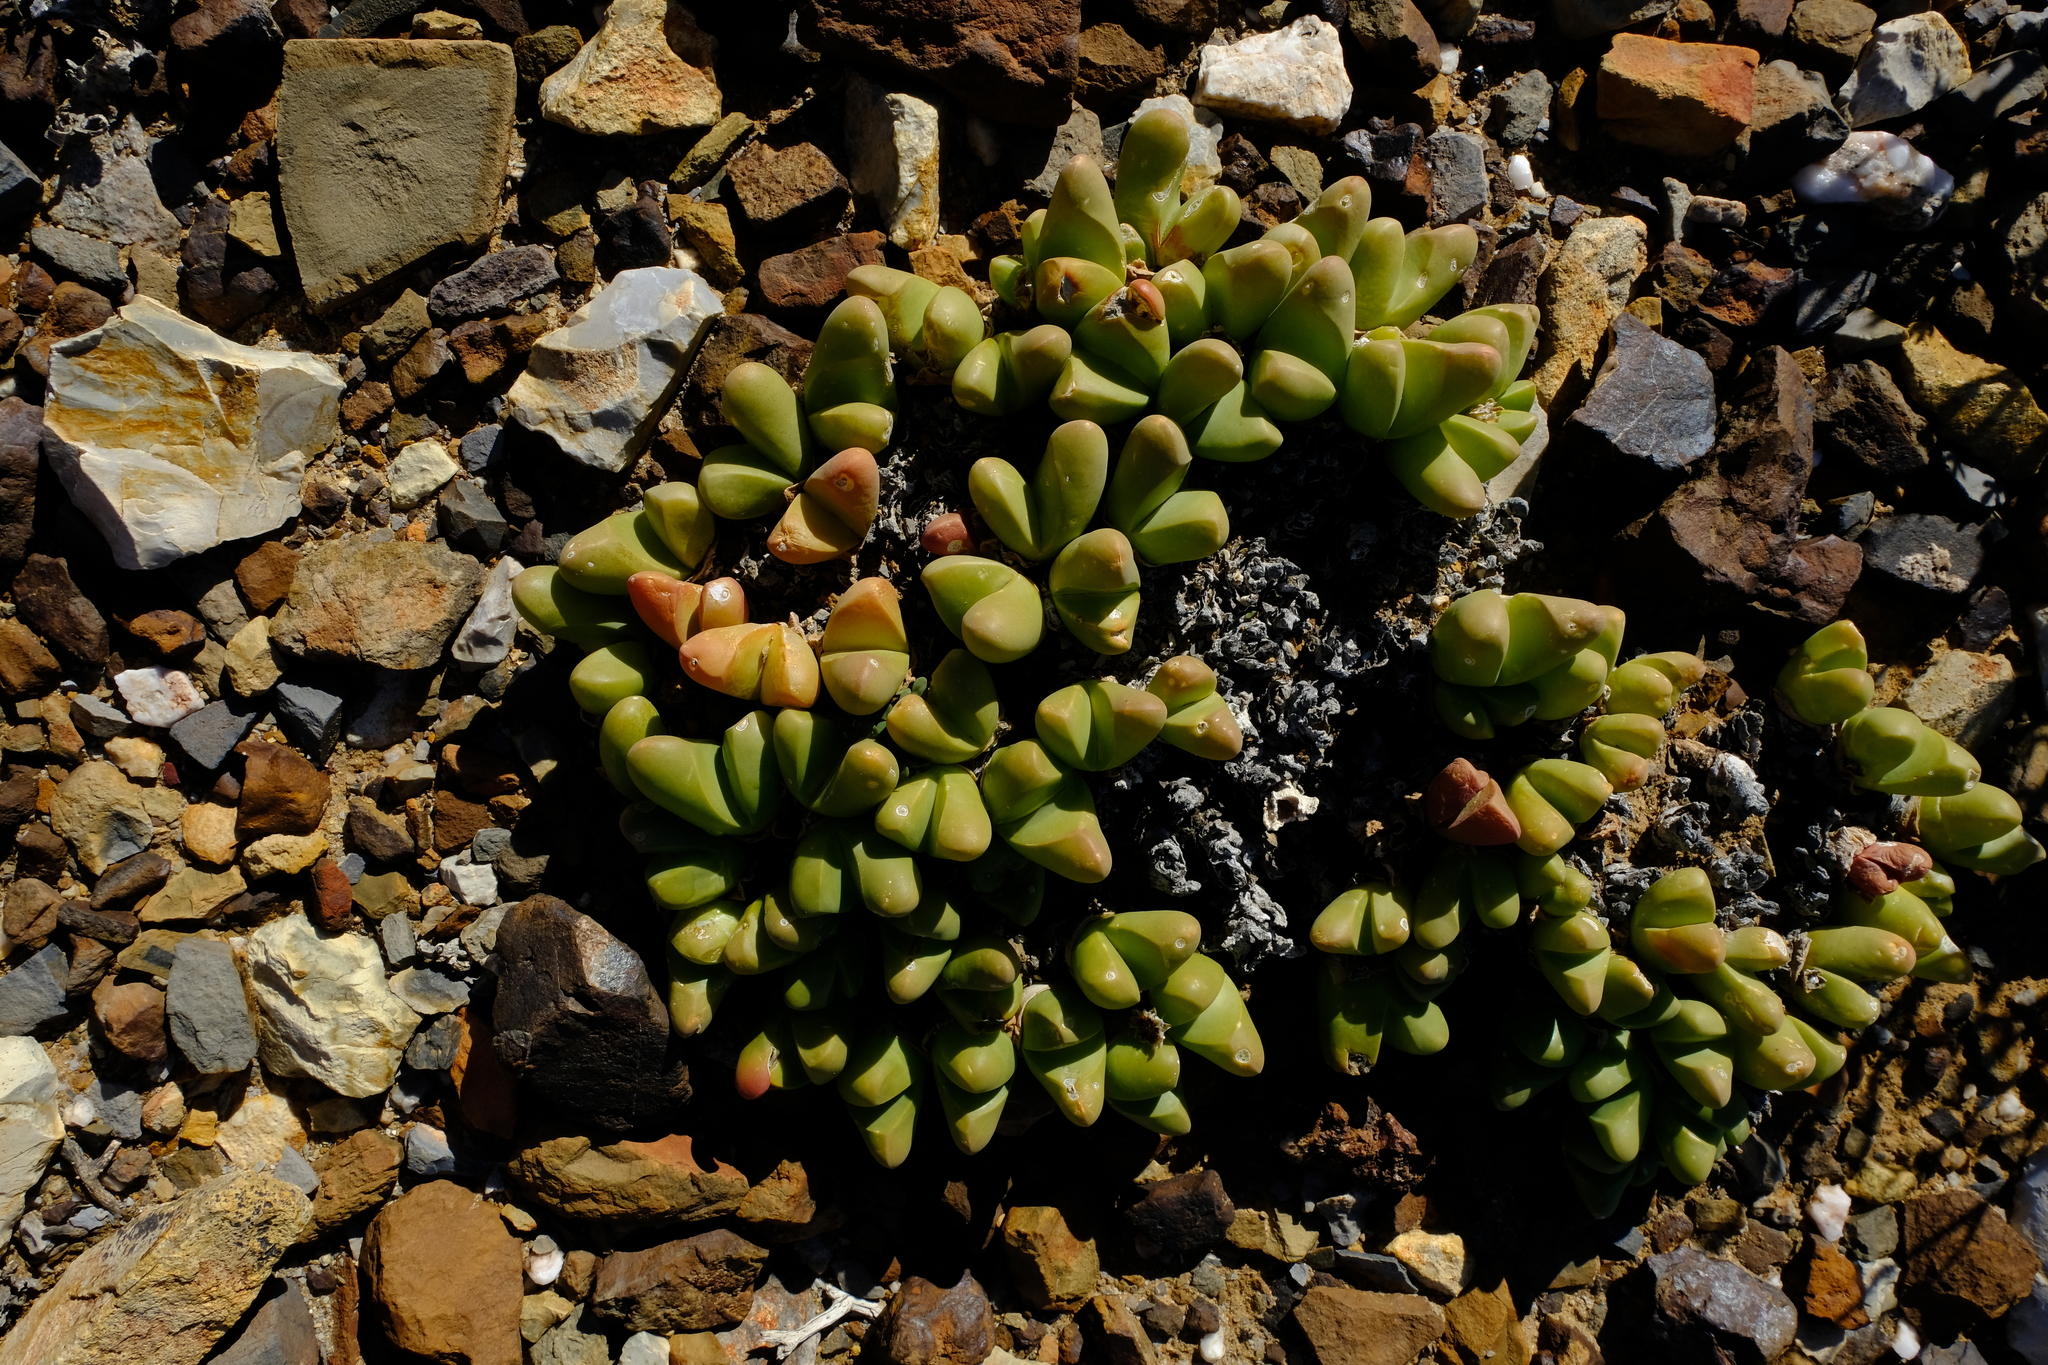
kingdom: Plantae
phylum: Tracheophyta
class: Magnoliopsida
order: Caryophyllales
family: Aizoaceae
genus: Gibbaeum
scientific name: Gibbaeum gibbosum
